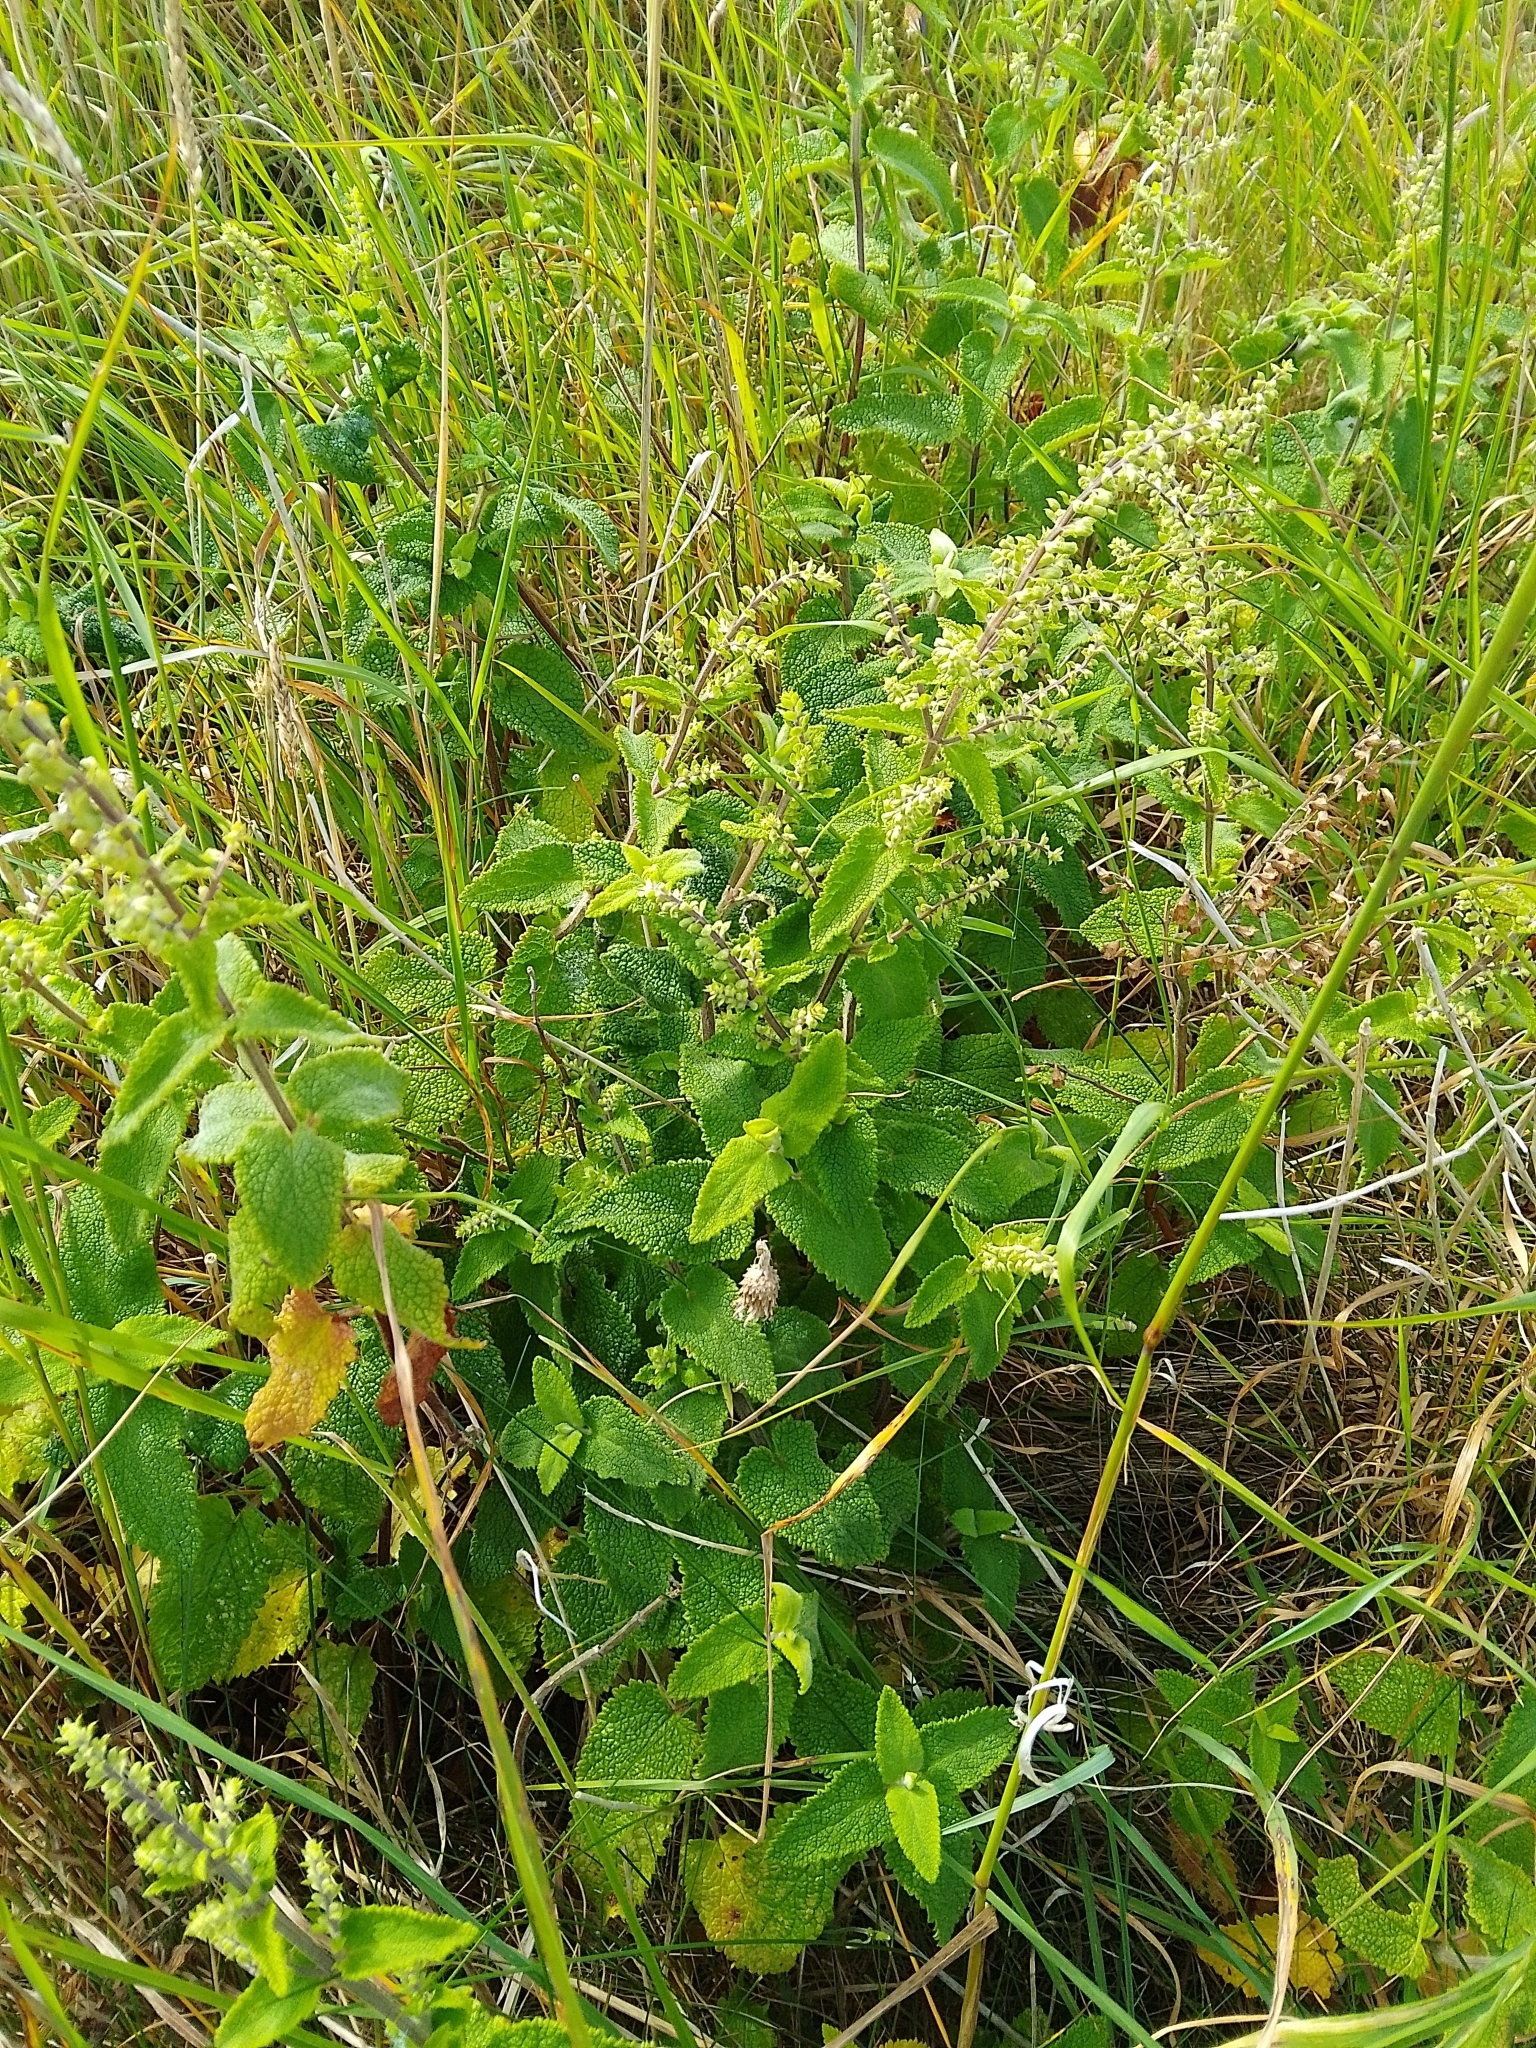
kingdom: Plantae
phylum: Tracheophyta
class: Magnoliopsida
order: Lamiales
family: Lamiaceae
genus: Teucrium
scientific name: Teucrium scorodonia
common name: Woodland germander
